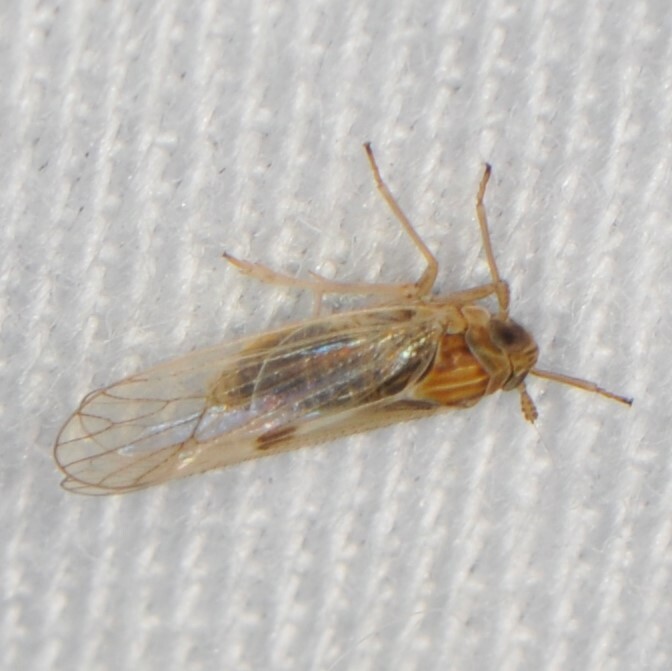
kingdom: Animalia
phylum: Arthropoda
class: Insecta
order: Hemiptera
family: Delphacidae
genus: Chionomus
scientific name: Chionomus
